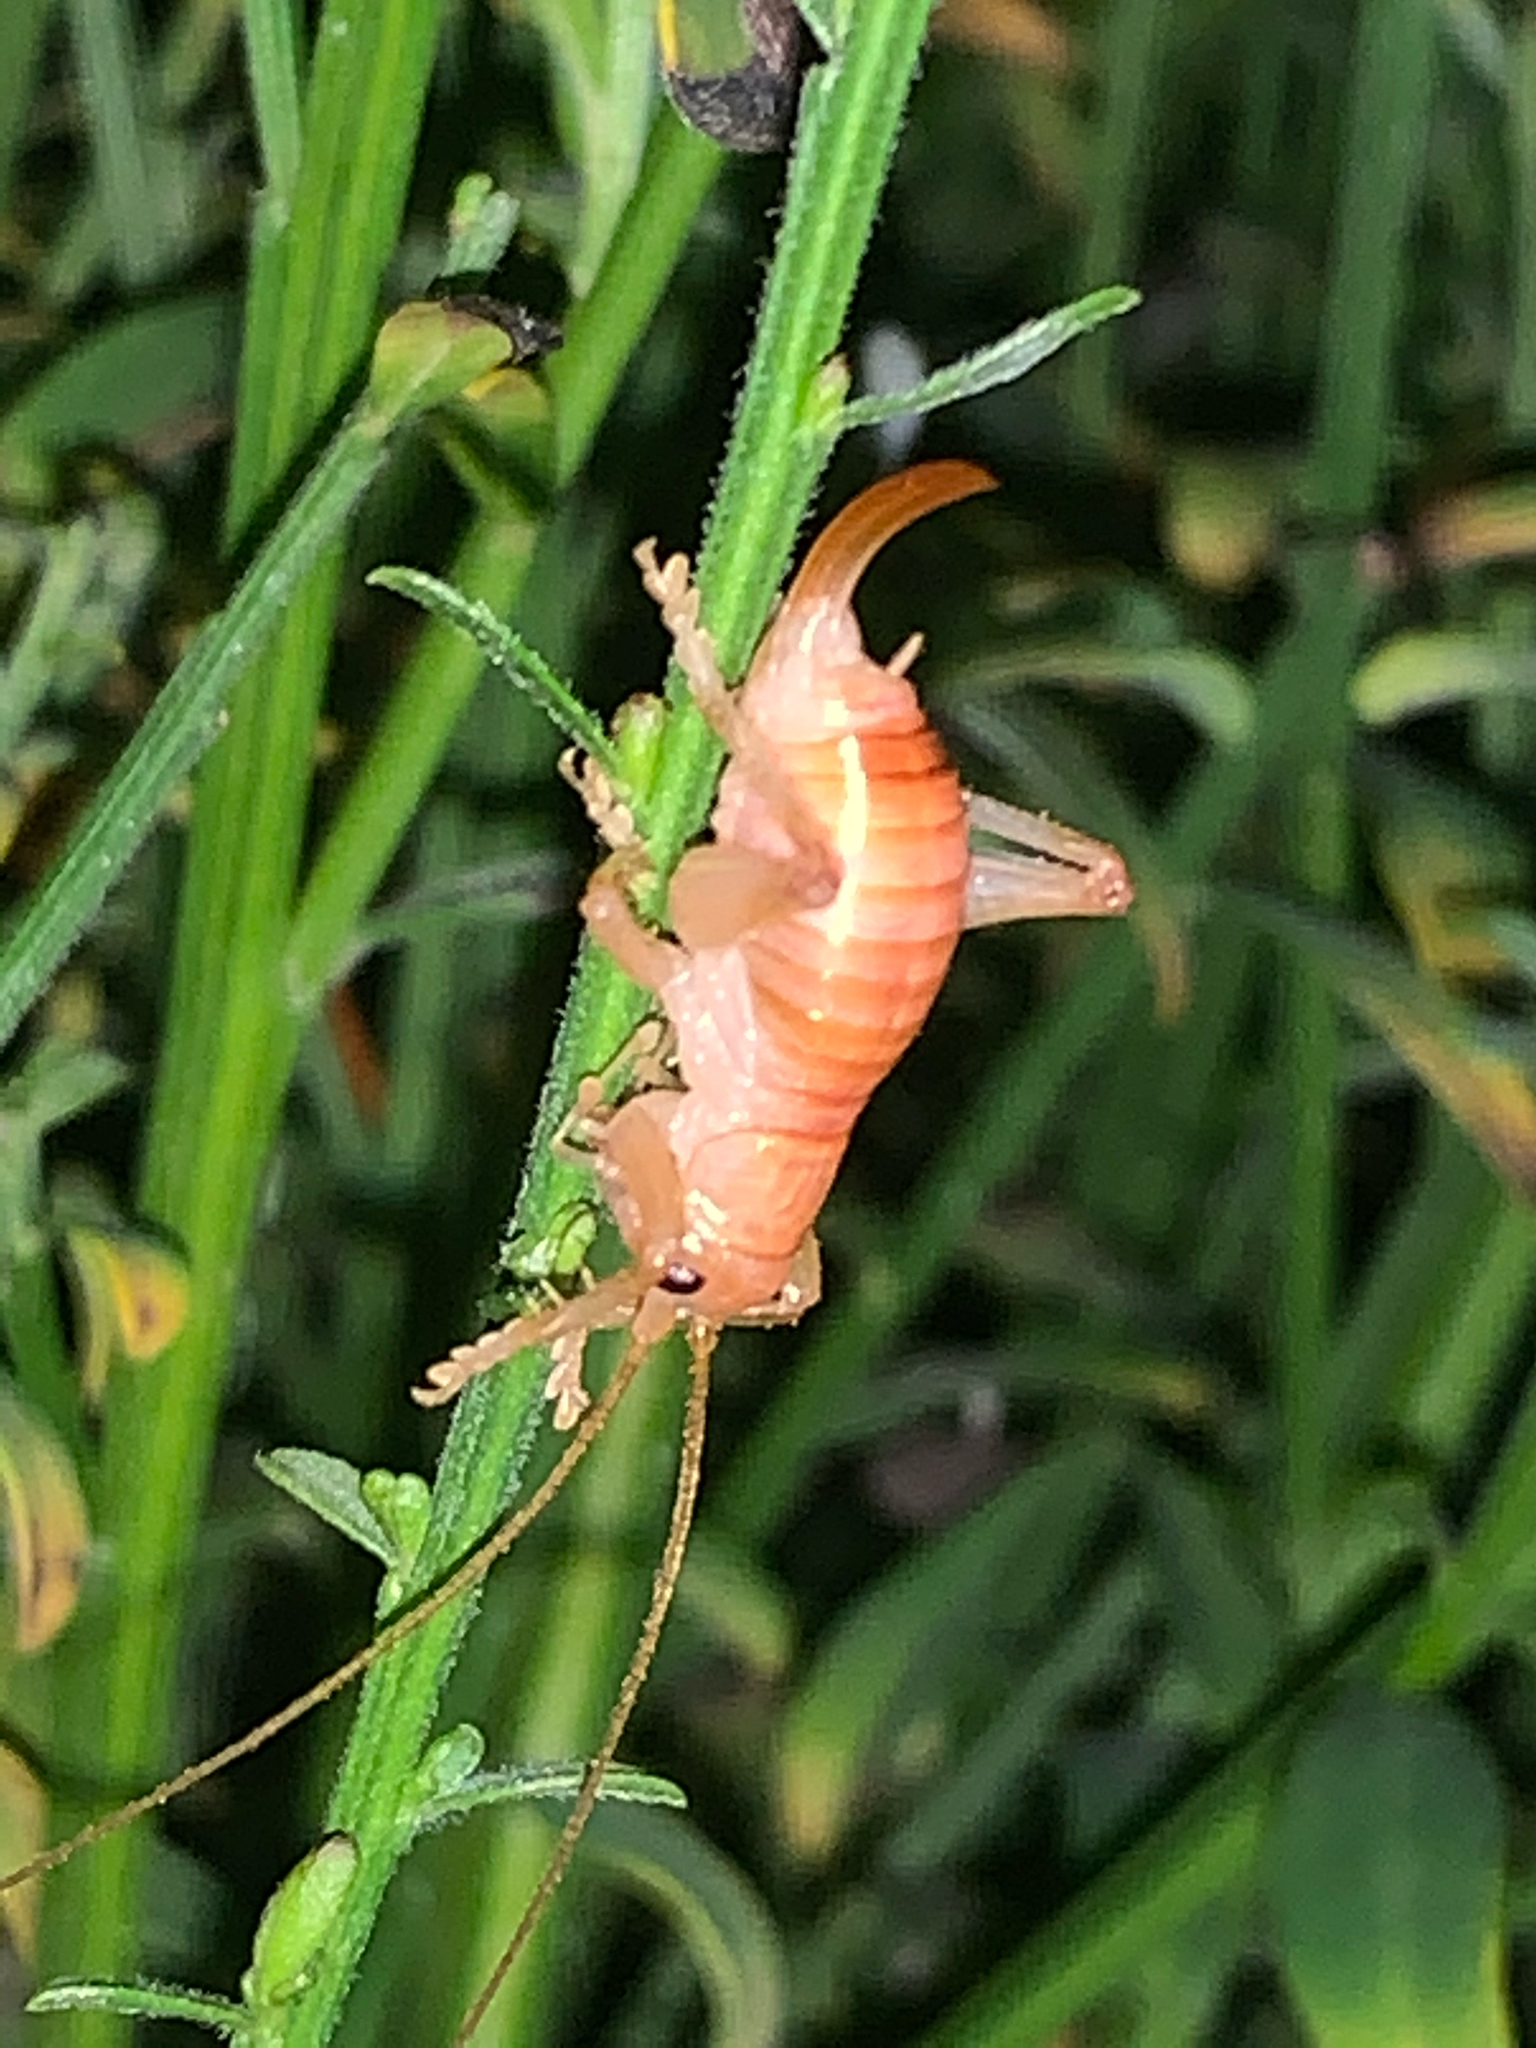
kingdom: Animalia
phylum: Arthropoda
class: Insecta
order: Orthoptera
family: Gryllacrididae
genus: Camptonotus
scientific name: Camptonotus carolinensis
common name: Carolina leaf-roller
